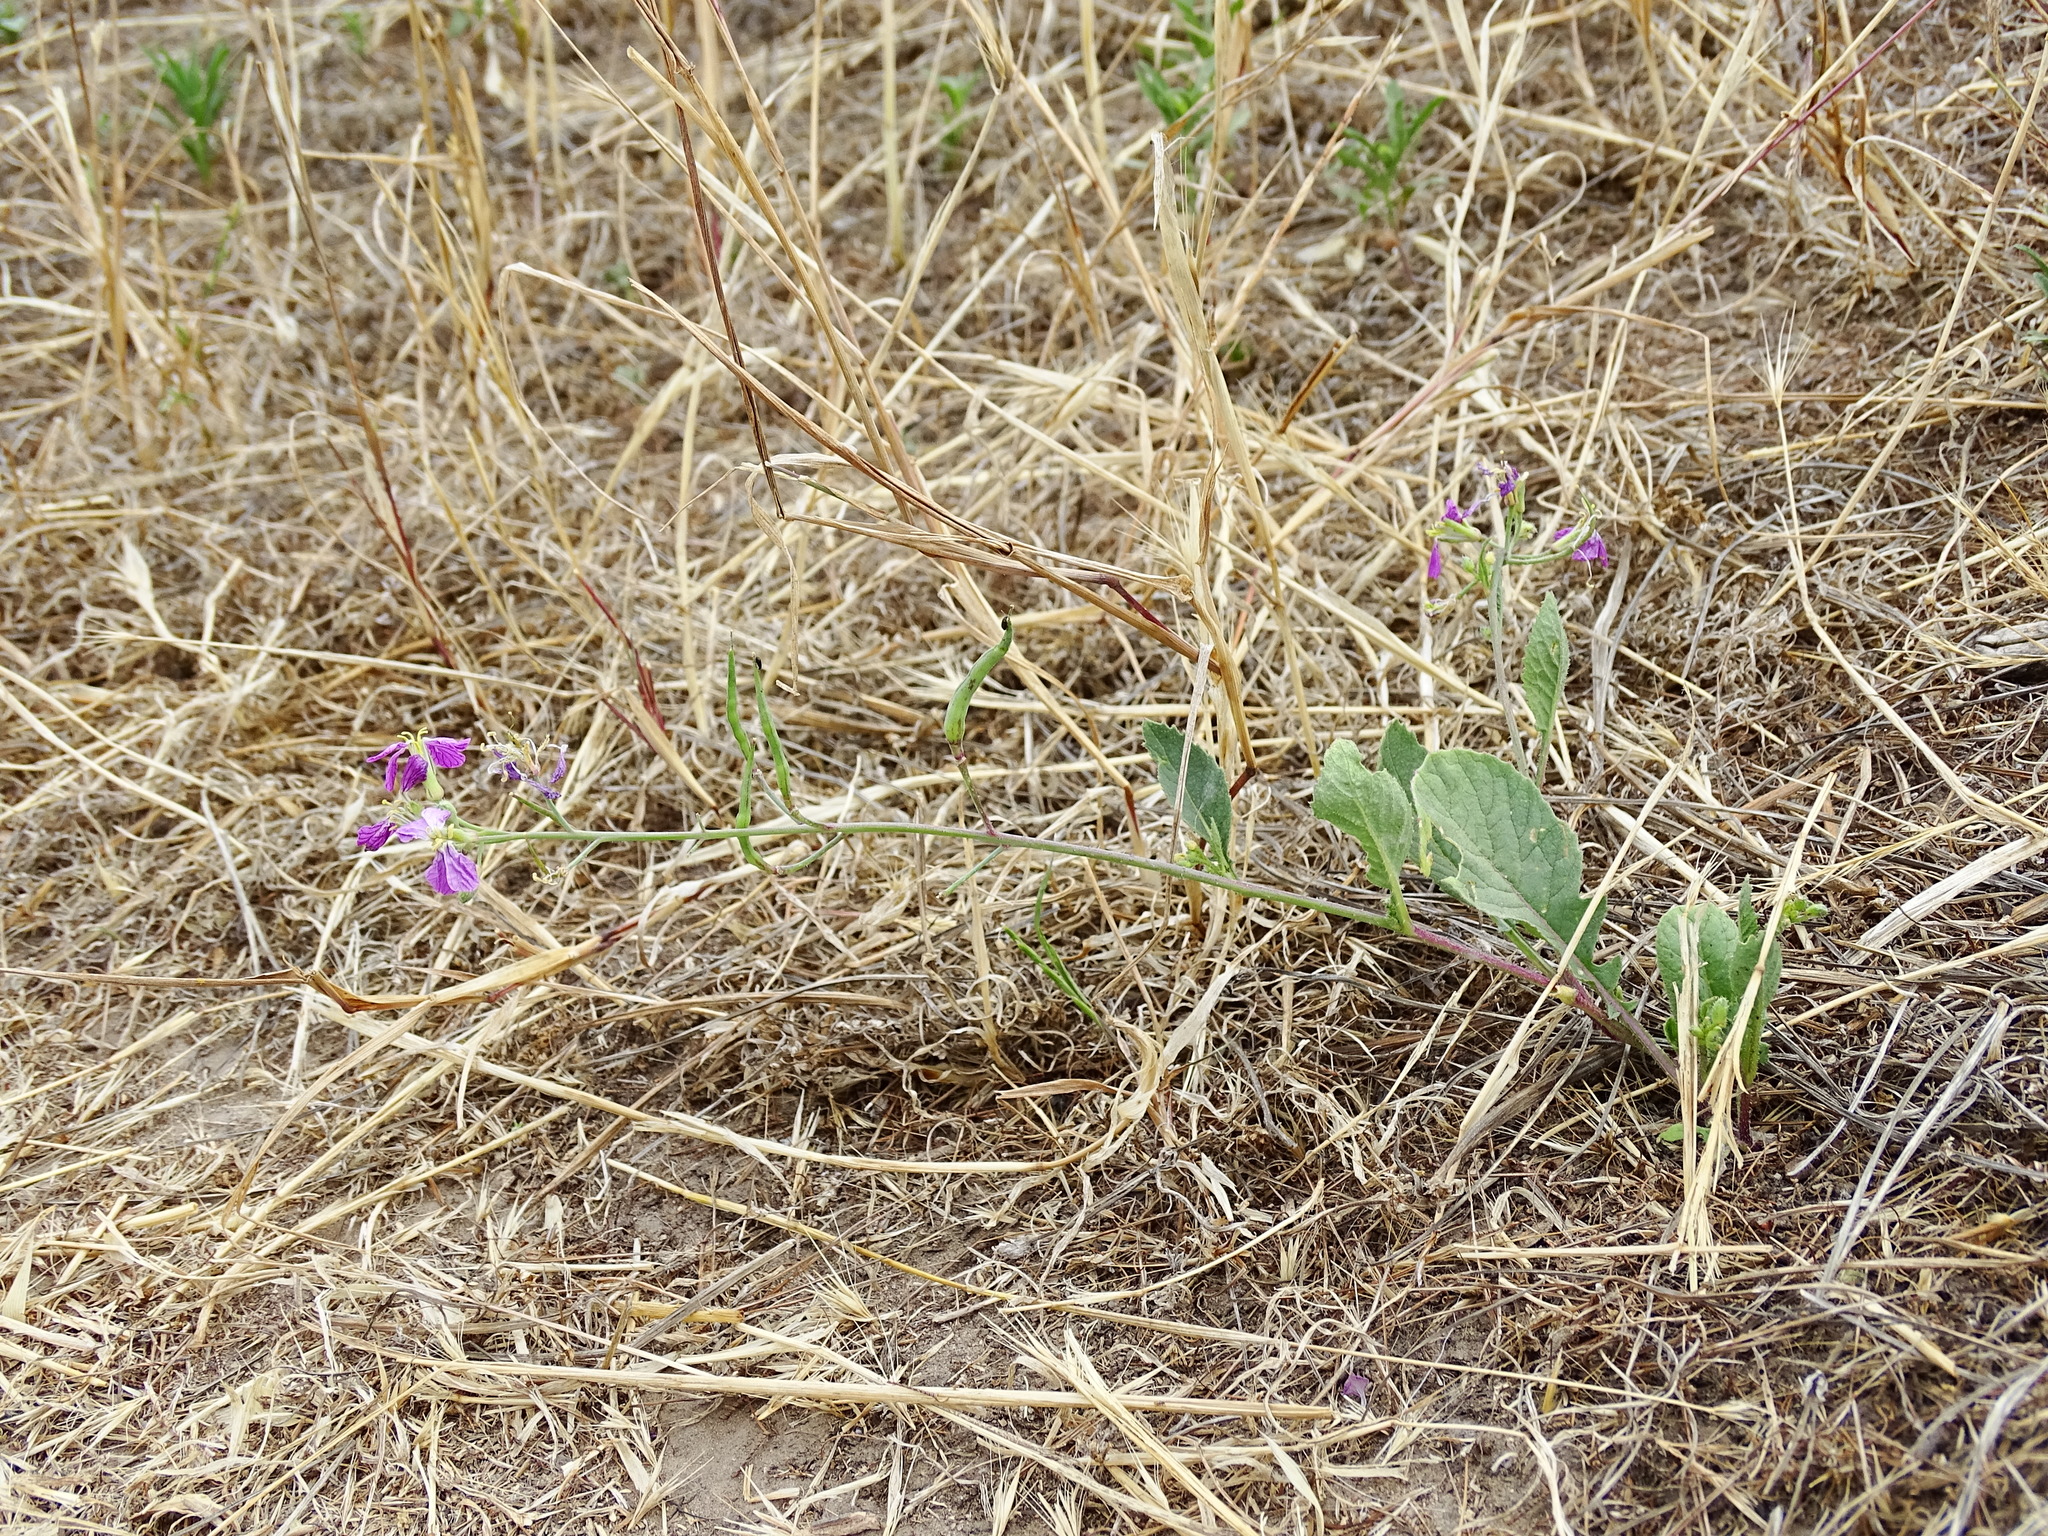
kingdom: Plantae
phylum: Tracheophyta
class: Magnoliopsida
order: Brassicales
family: Brassicaceae
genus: Raphanus
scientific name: Raphanus sativus
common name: Cultivated radish
